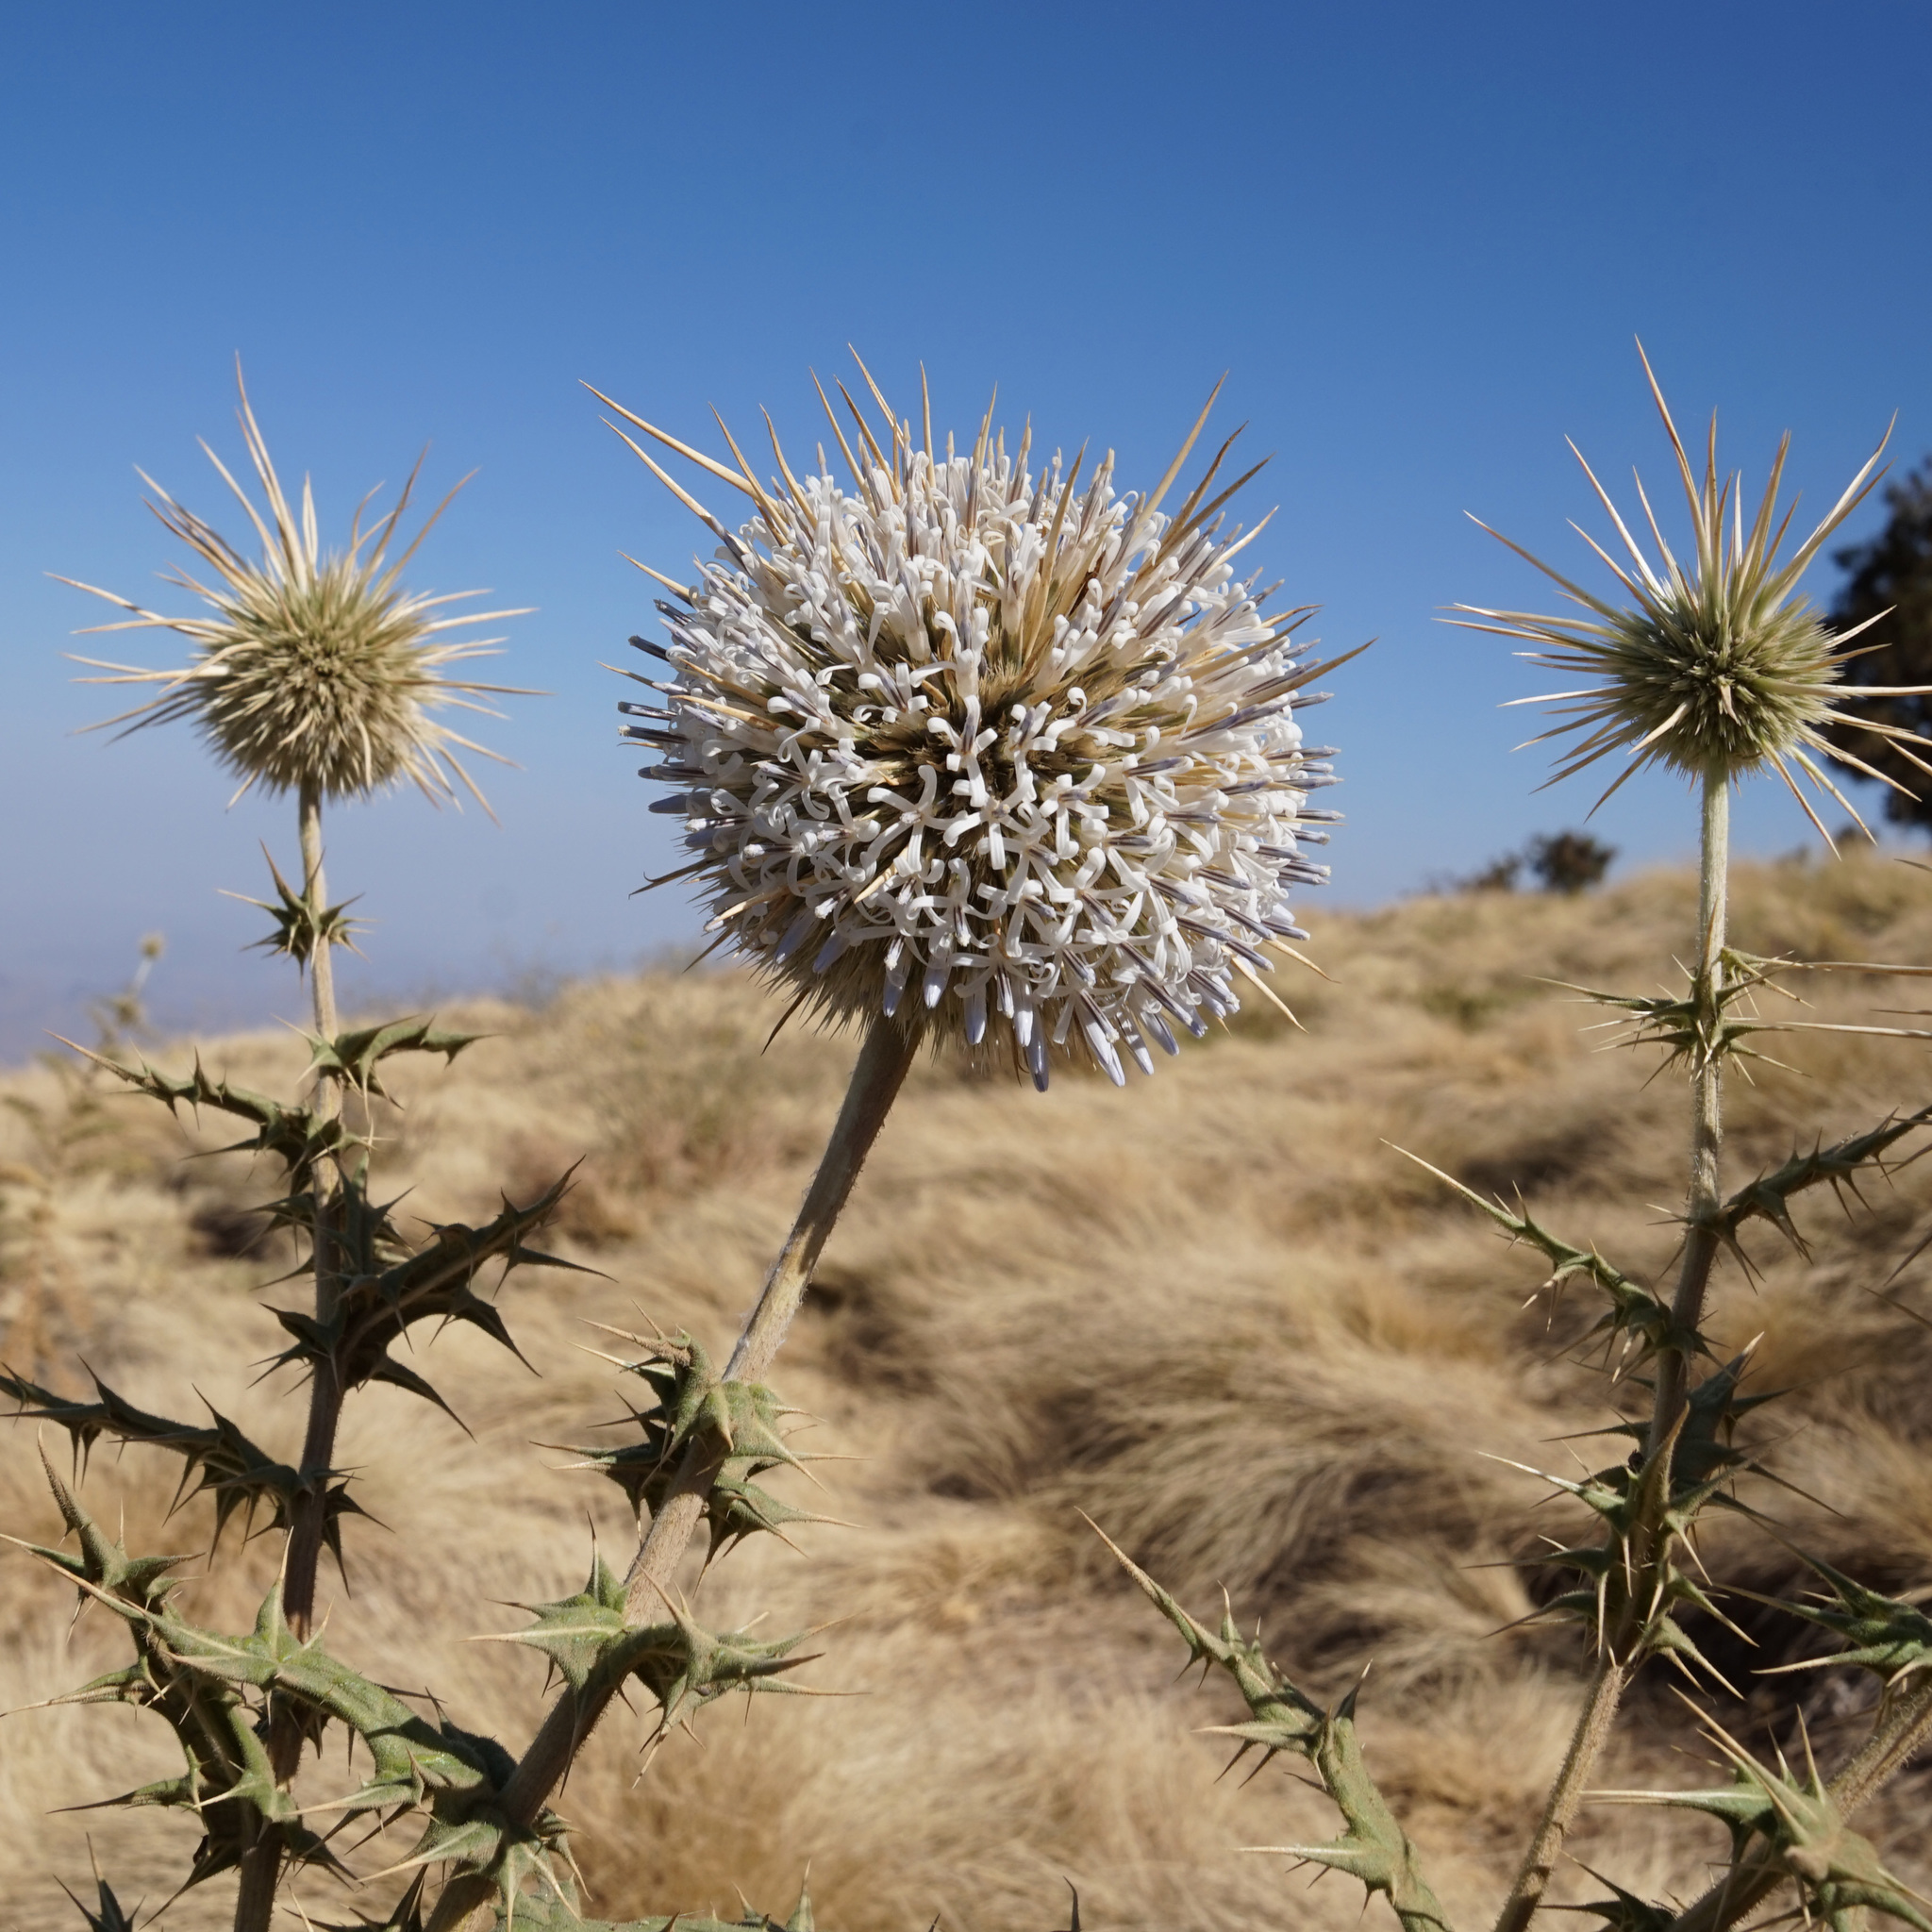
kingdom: Plantae
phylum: Tracheophyta
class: Magnoliopsida
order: Asterales
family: Asteraceae
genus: Echinops
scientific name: Echinops macrochaetus
